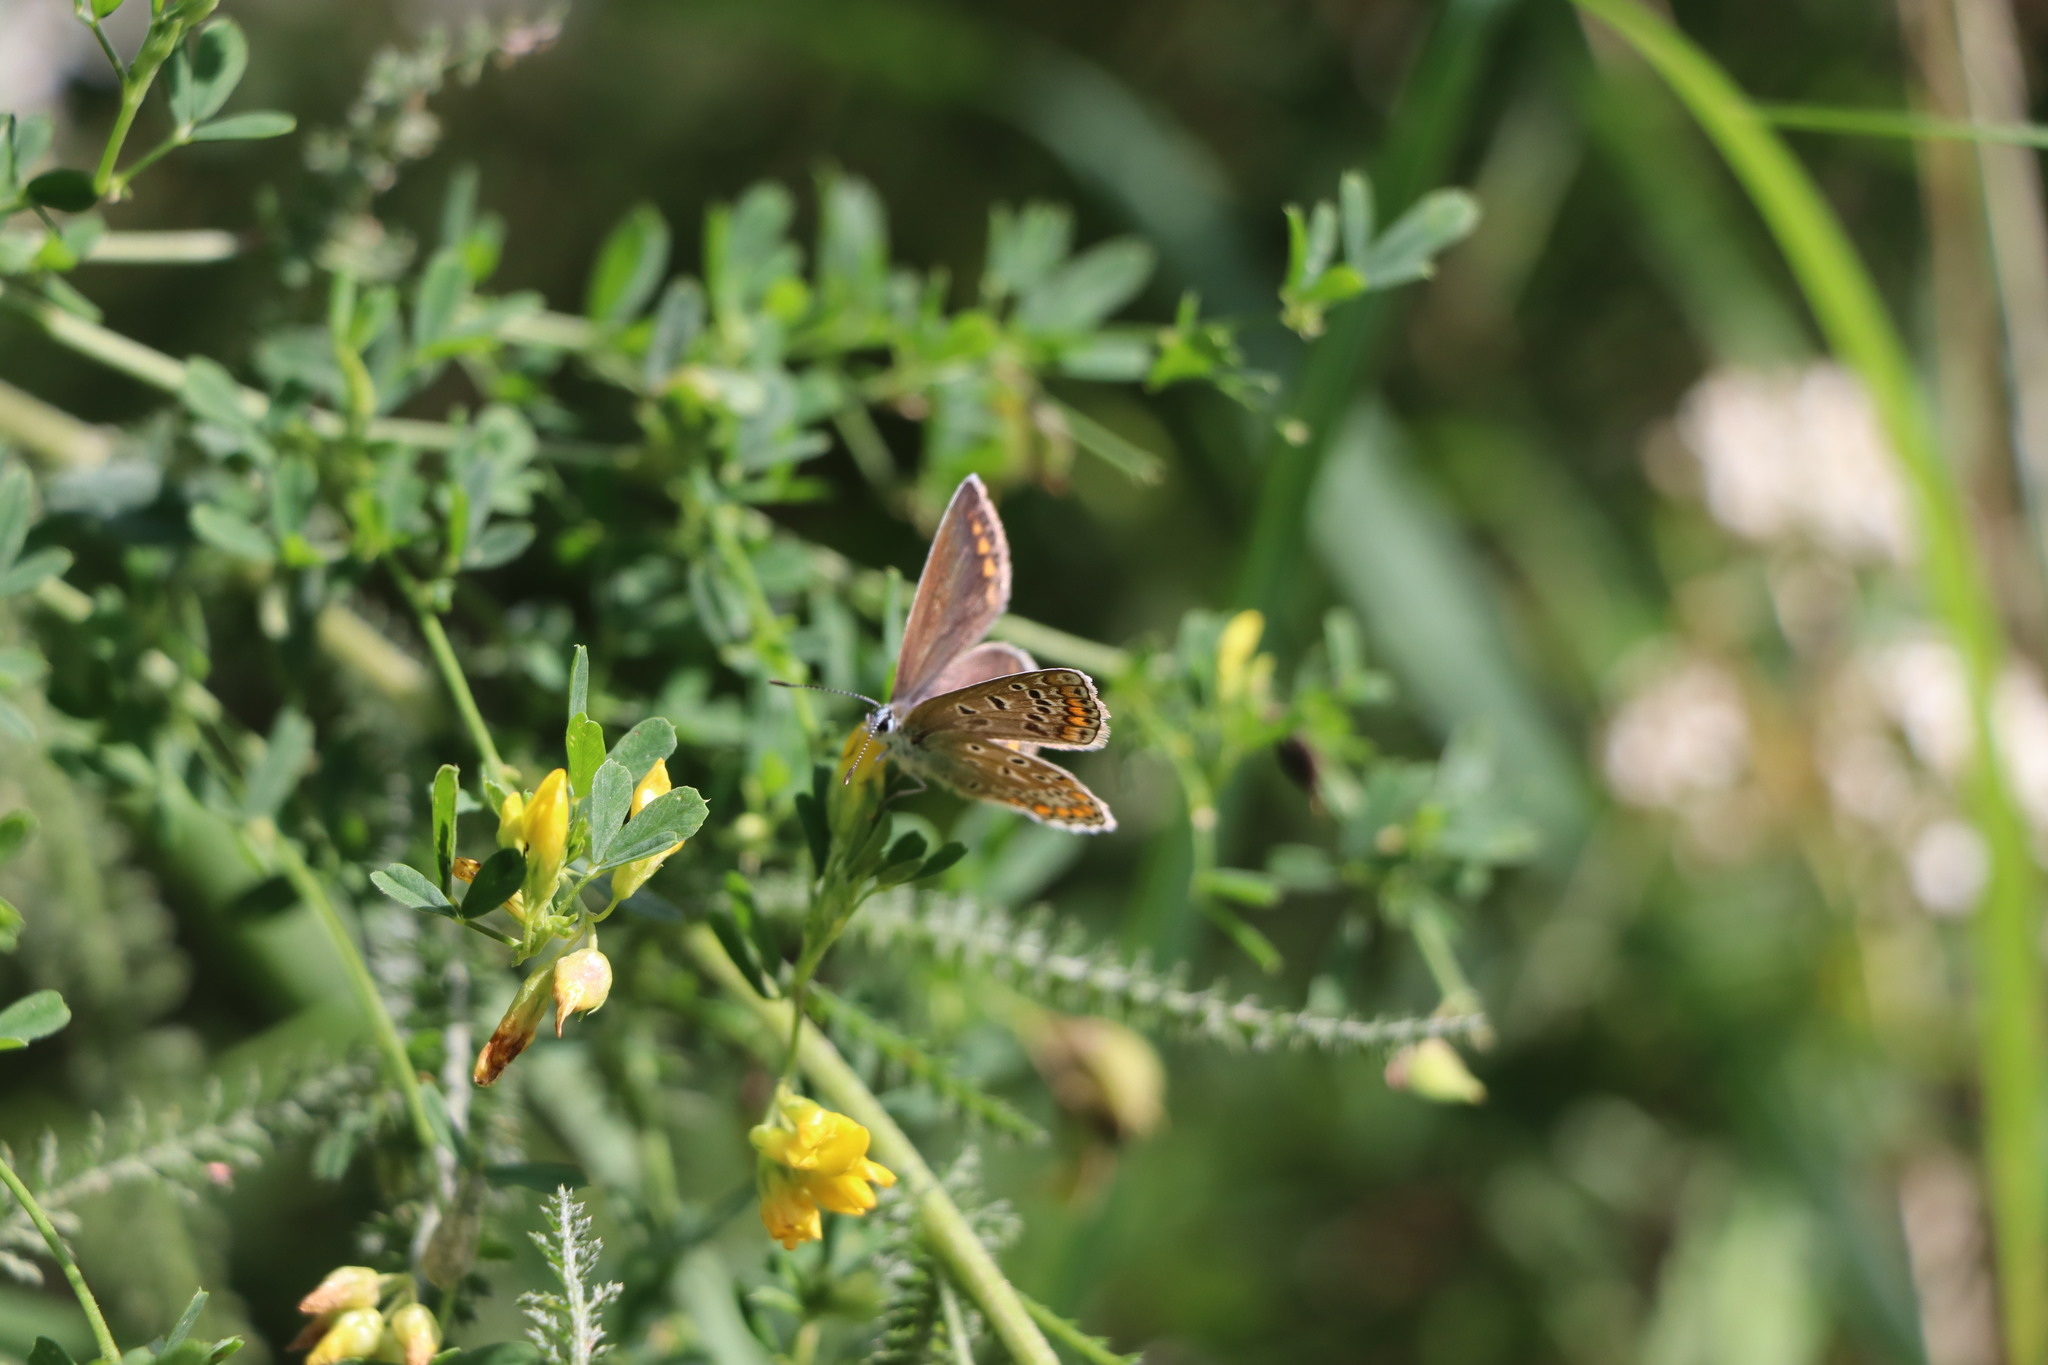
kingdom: Animalia
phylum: Arthropoda
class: Insecta
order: Lepidoptera
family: Lycaenidae
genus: Polyommatus
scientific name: Polyommatus icarus
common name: Common blue
